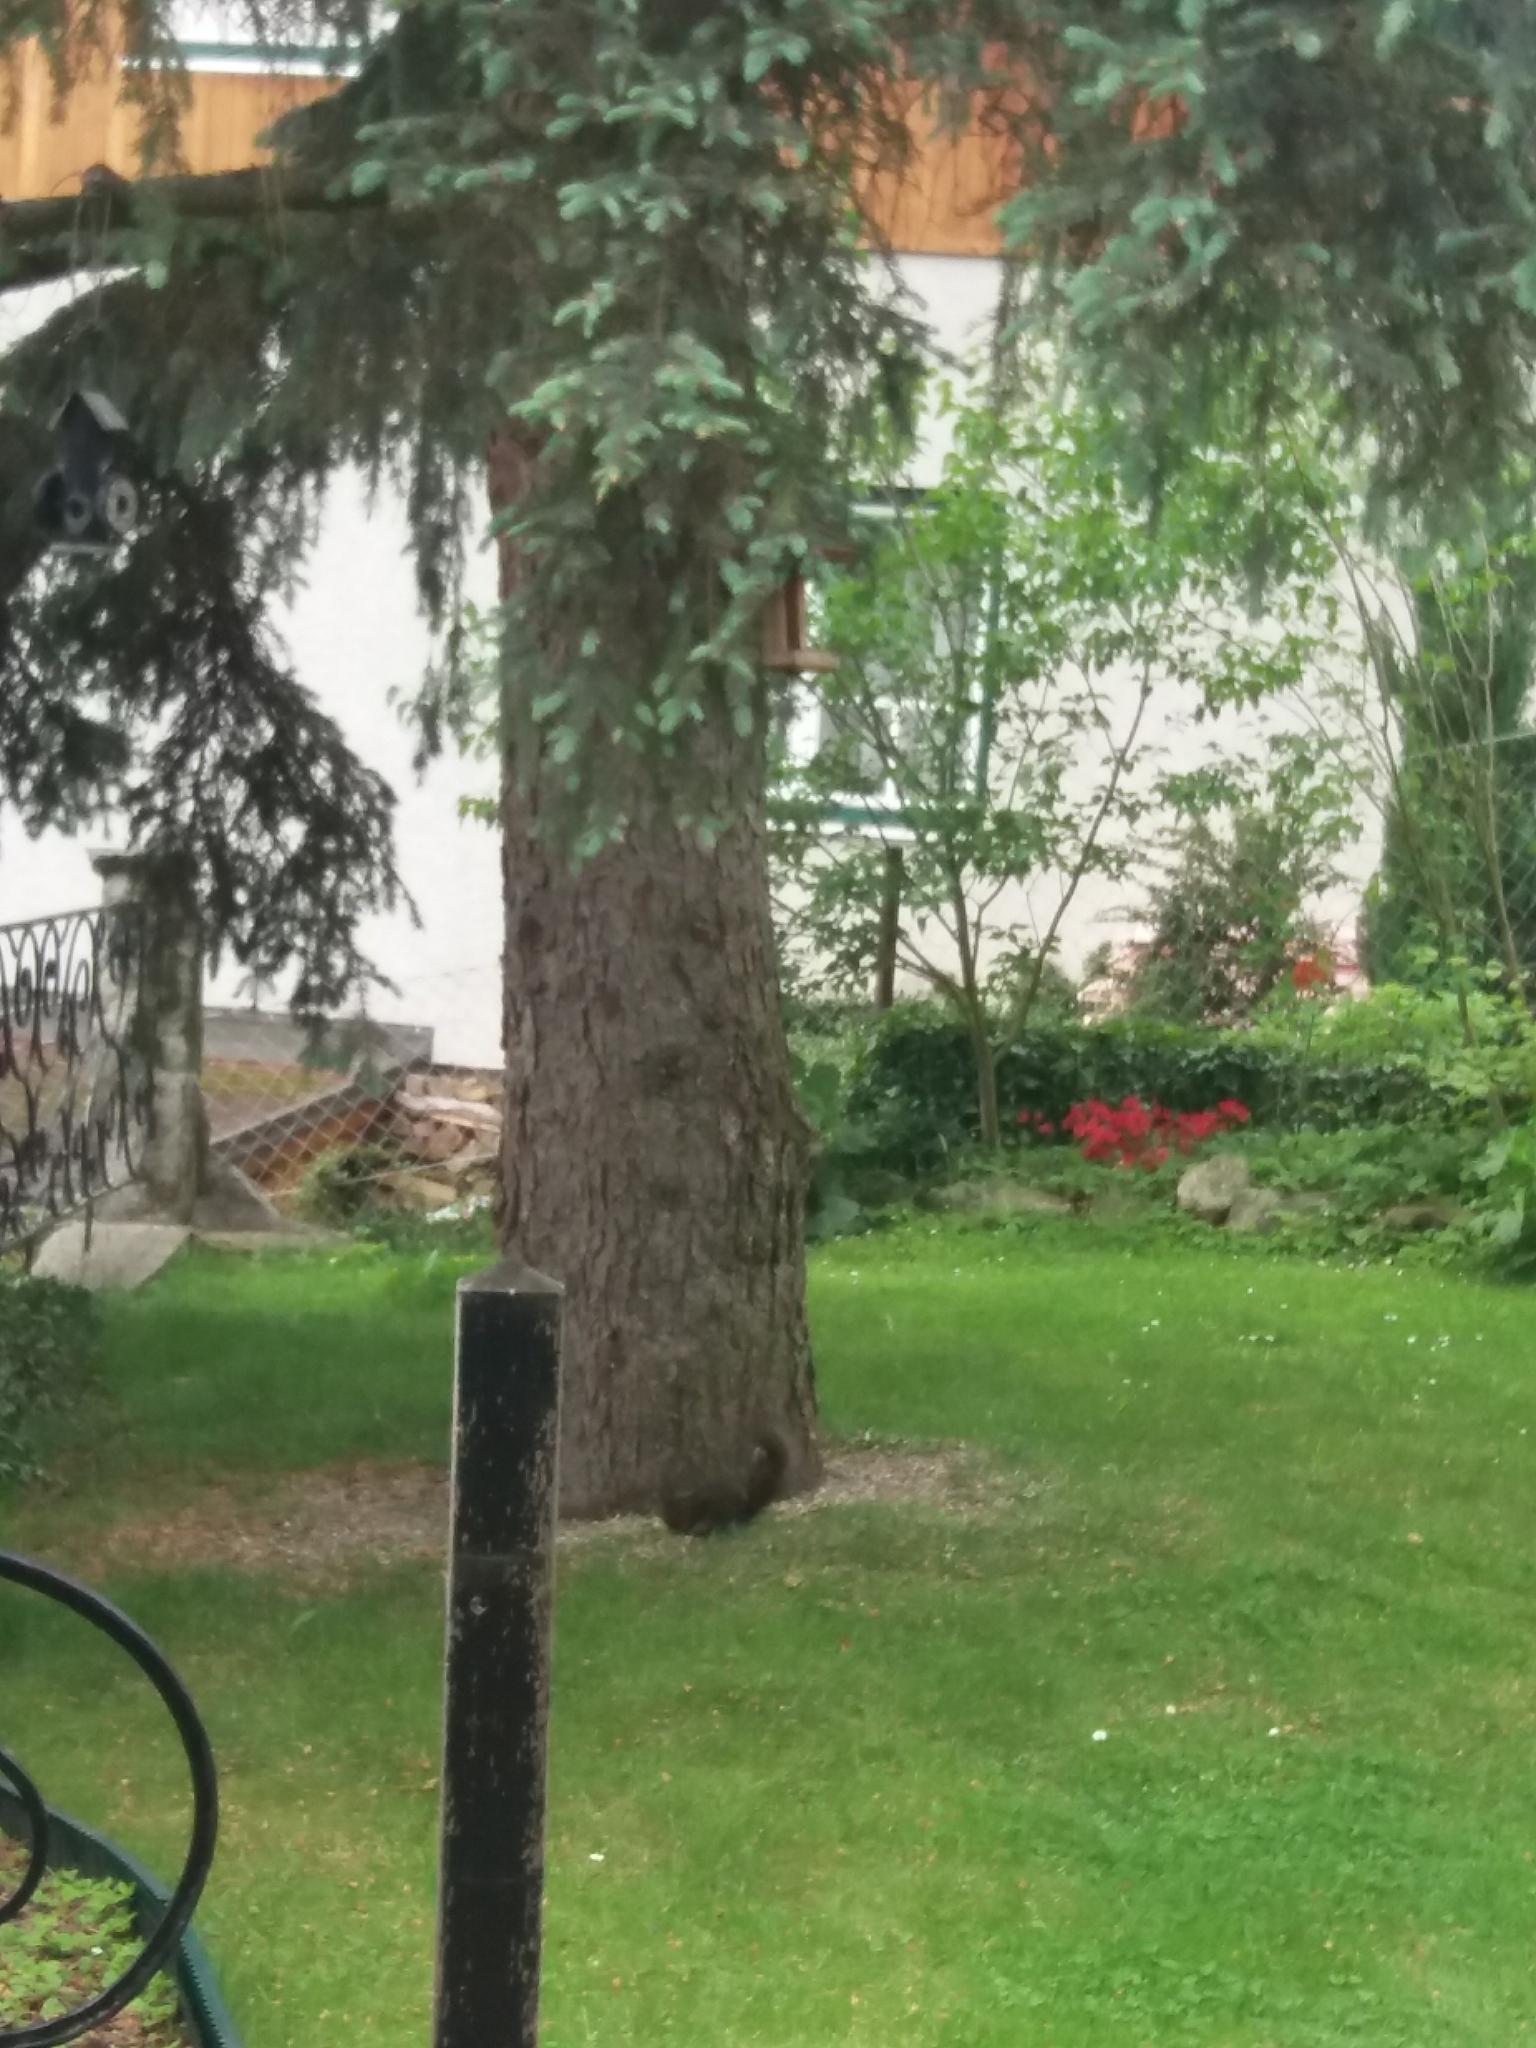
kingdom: Animalia
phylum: Chordata
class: Mammalia
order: Rodentia
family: Sciuridae
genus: Sciurus
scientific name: Sciurus vulgaris
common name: Eurasian red squirrel
